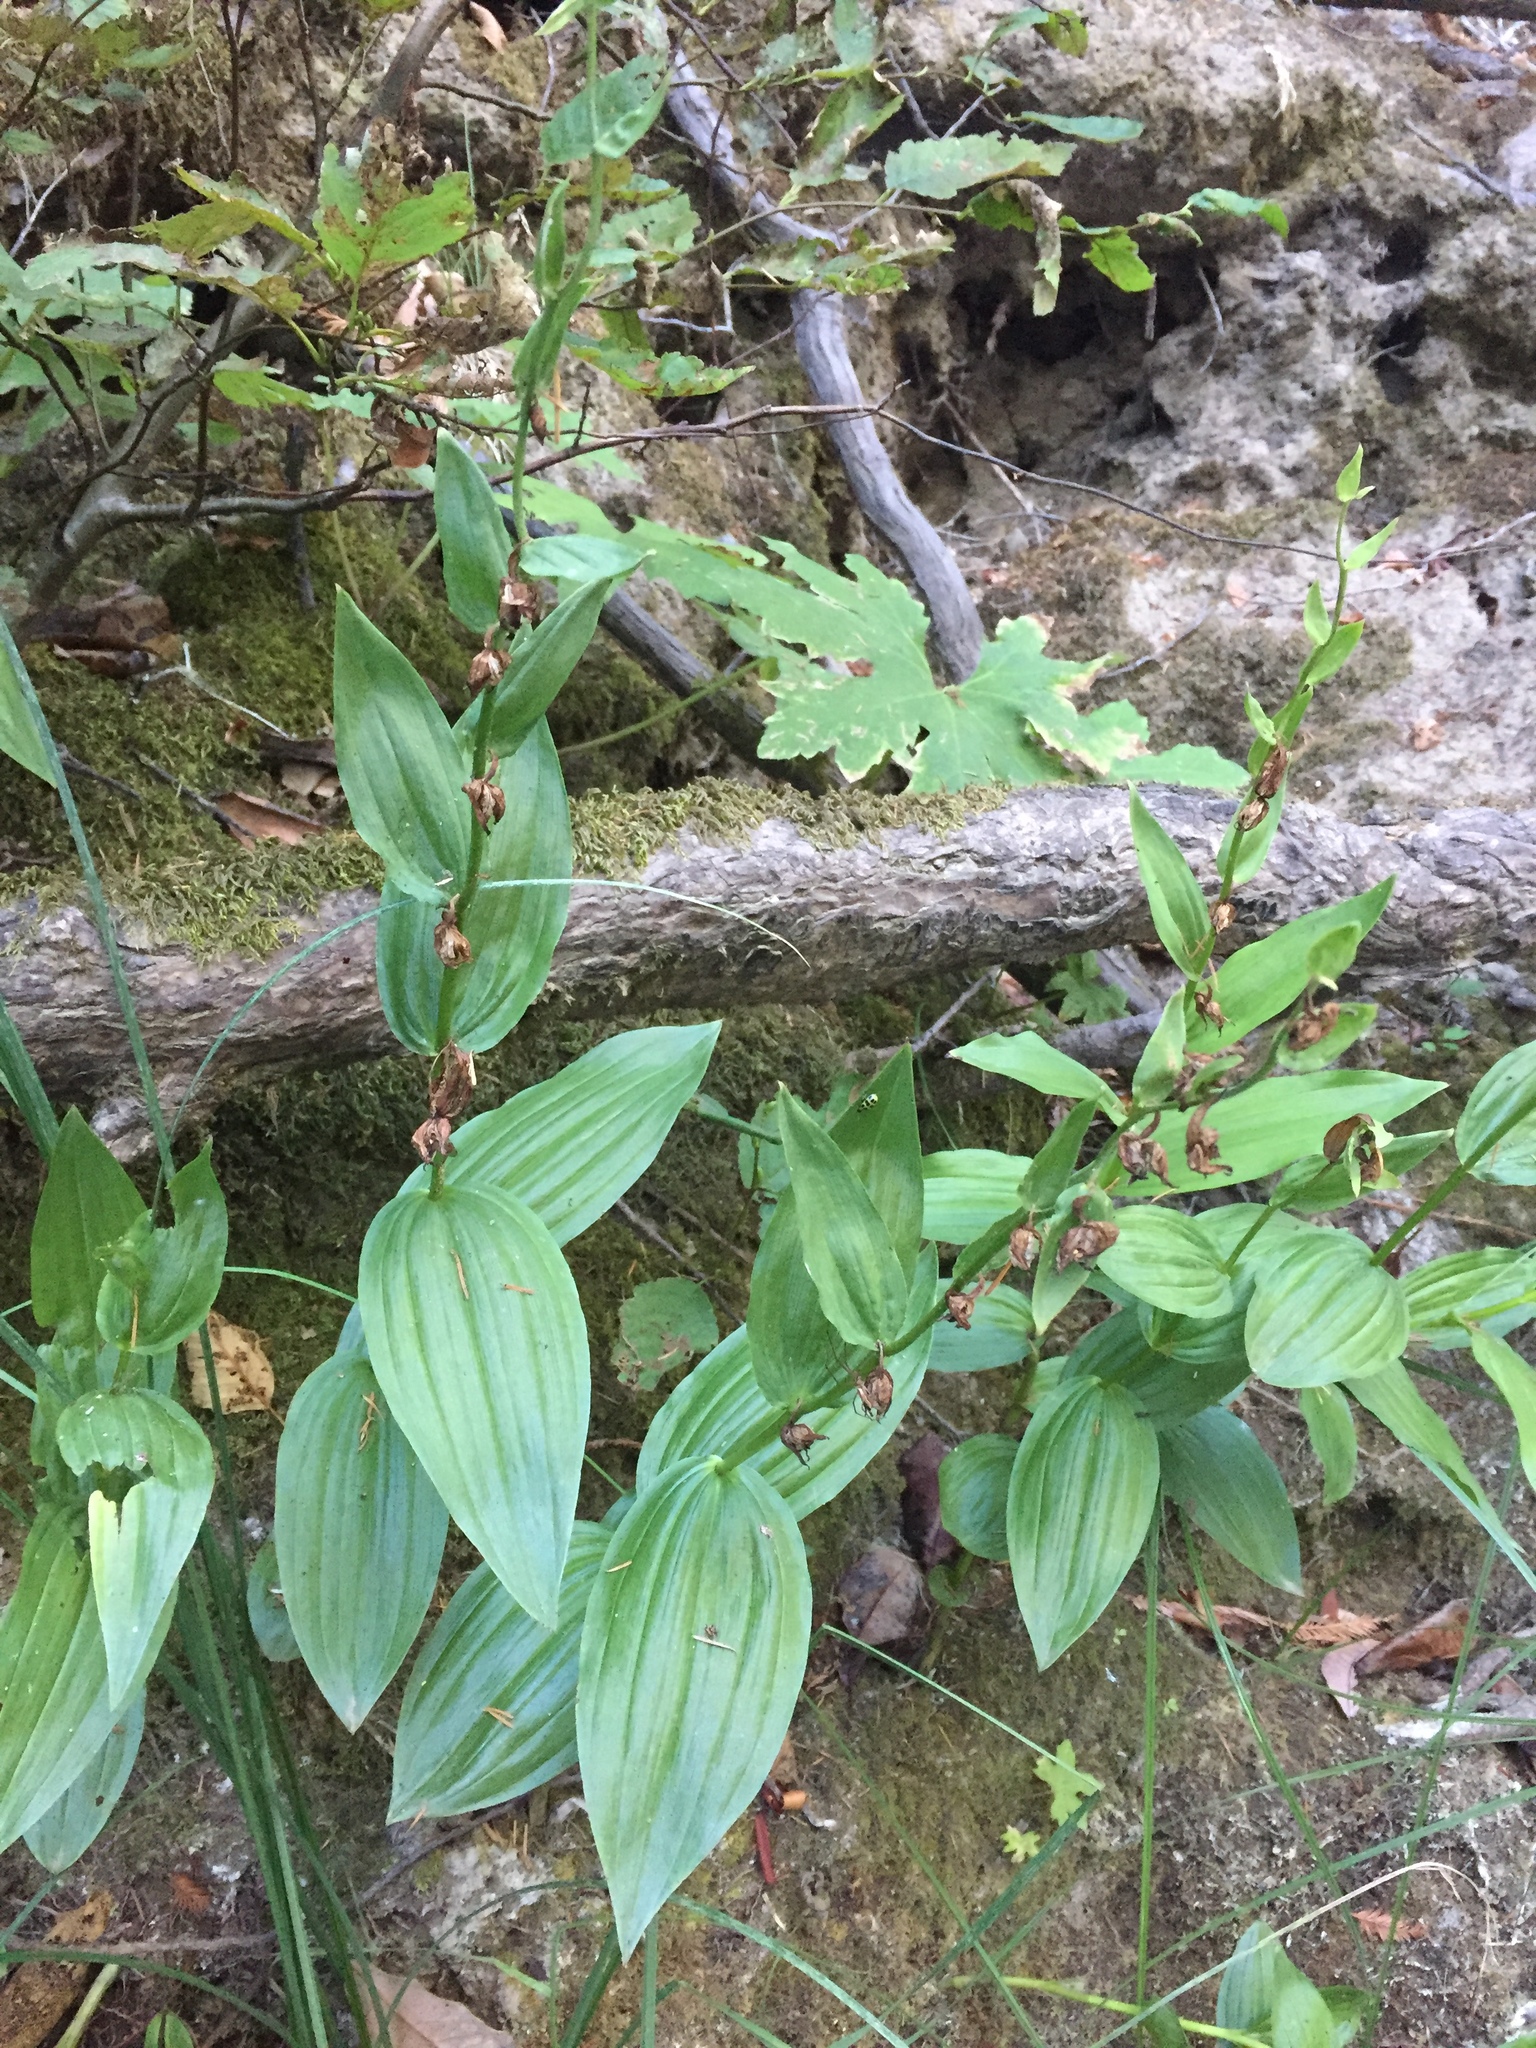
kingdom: Plantae
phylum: Tracheophyta
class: Liliopsida
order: Asparagales
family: Orchidaceae
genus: Epipactis
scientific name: Epipactis gigantea
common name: Chatterbox
